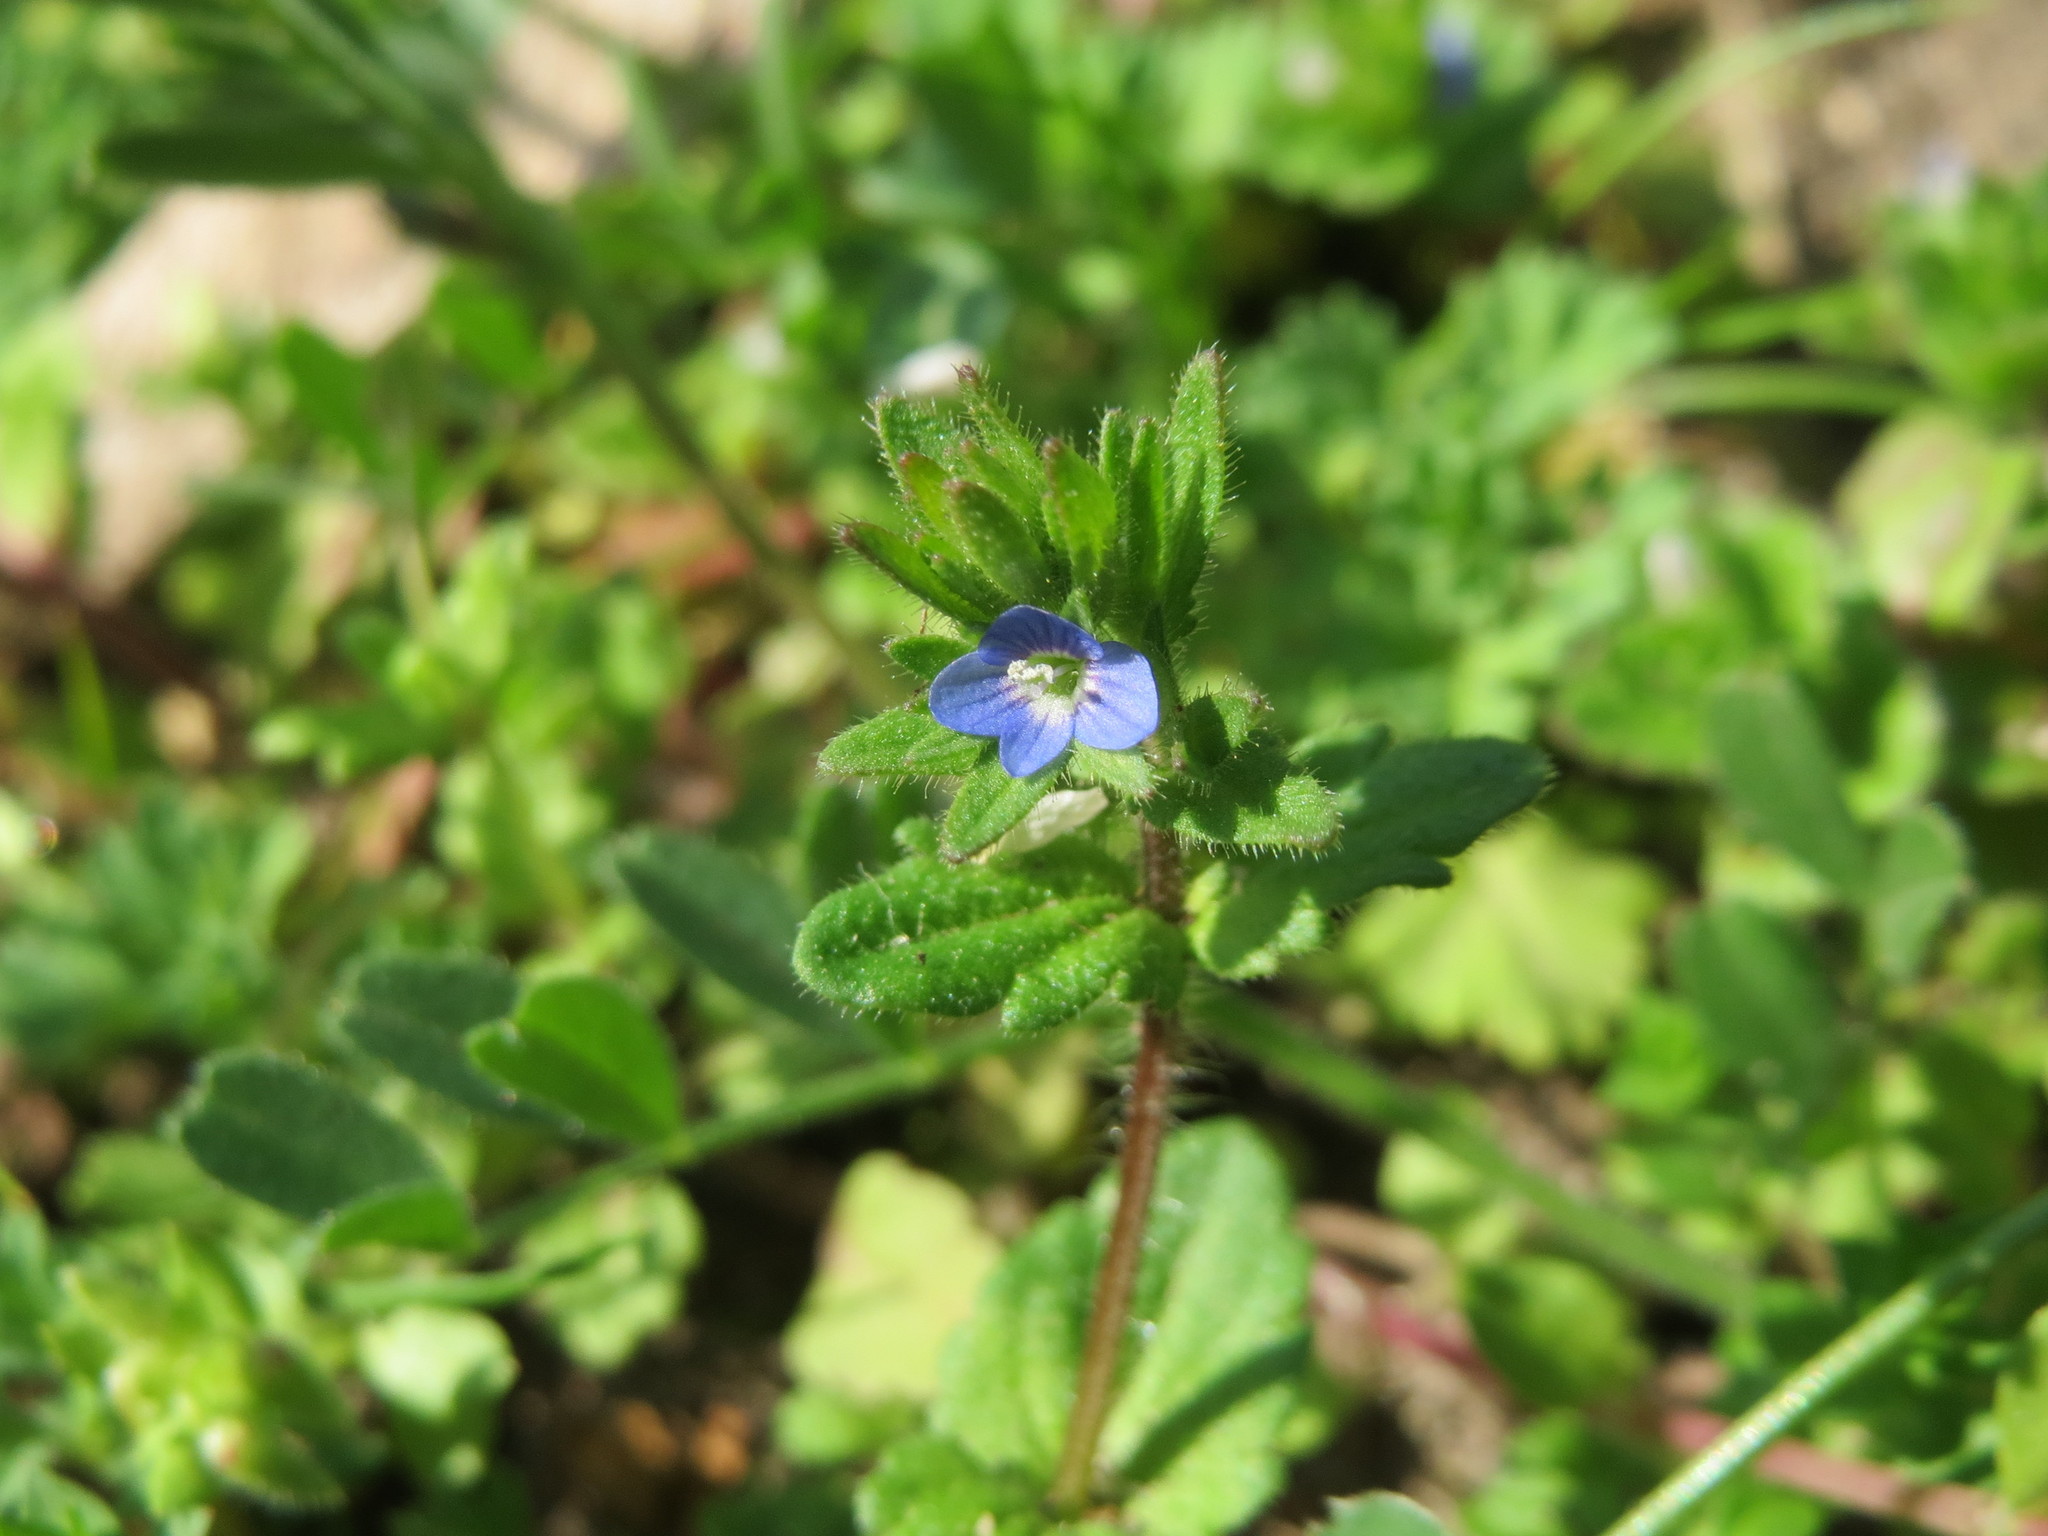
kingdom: Plantae
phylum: Tracheophyta
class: Magnoliopsida
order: Lamiales
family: Plantaginaceae
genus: Veronica
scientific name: Veronica arvensis
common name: Corn speedwell
